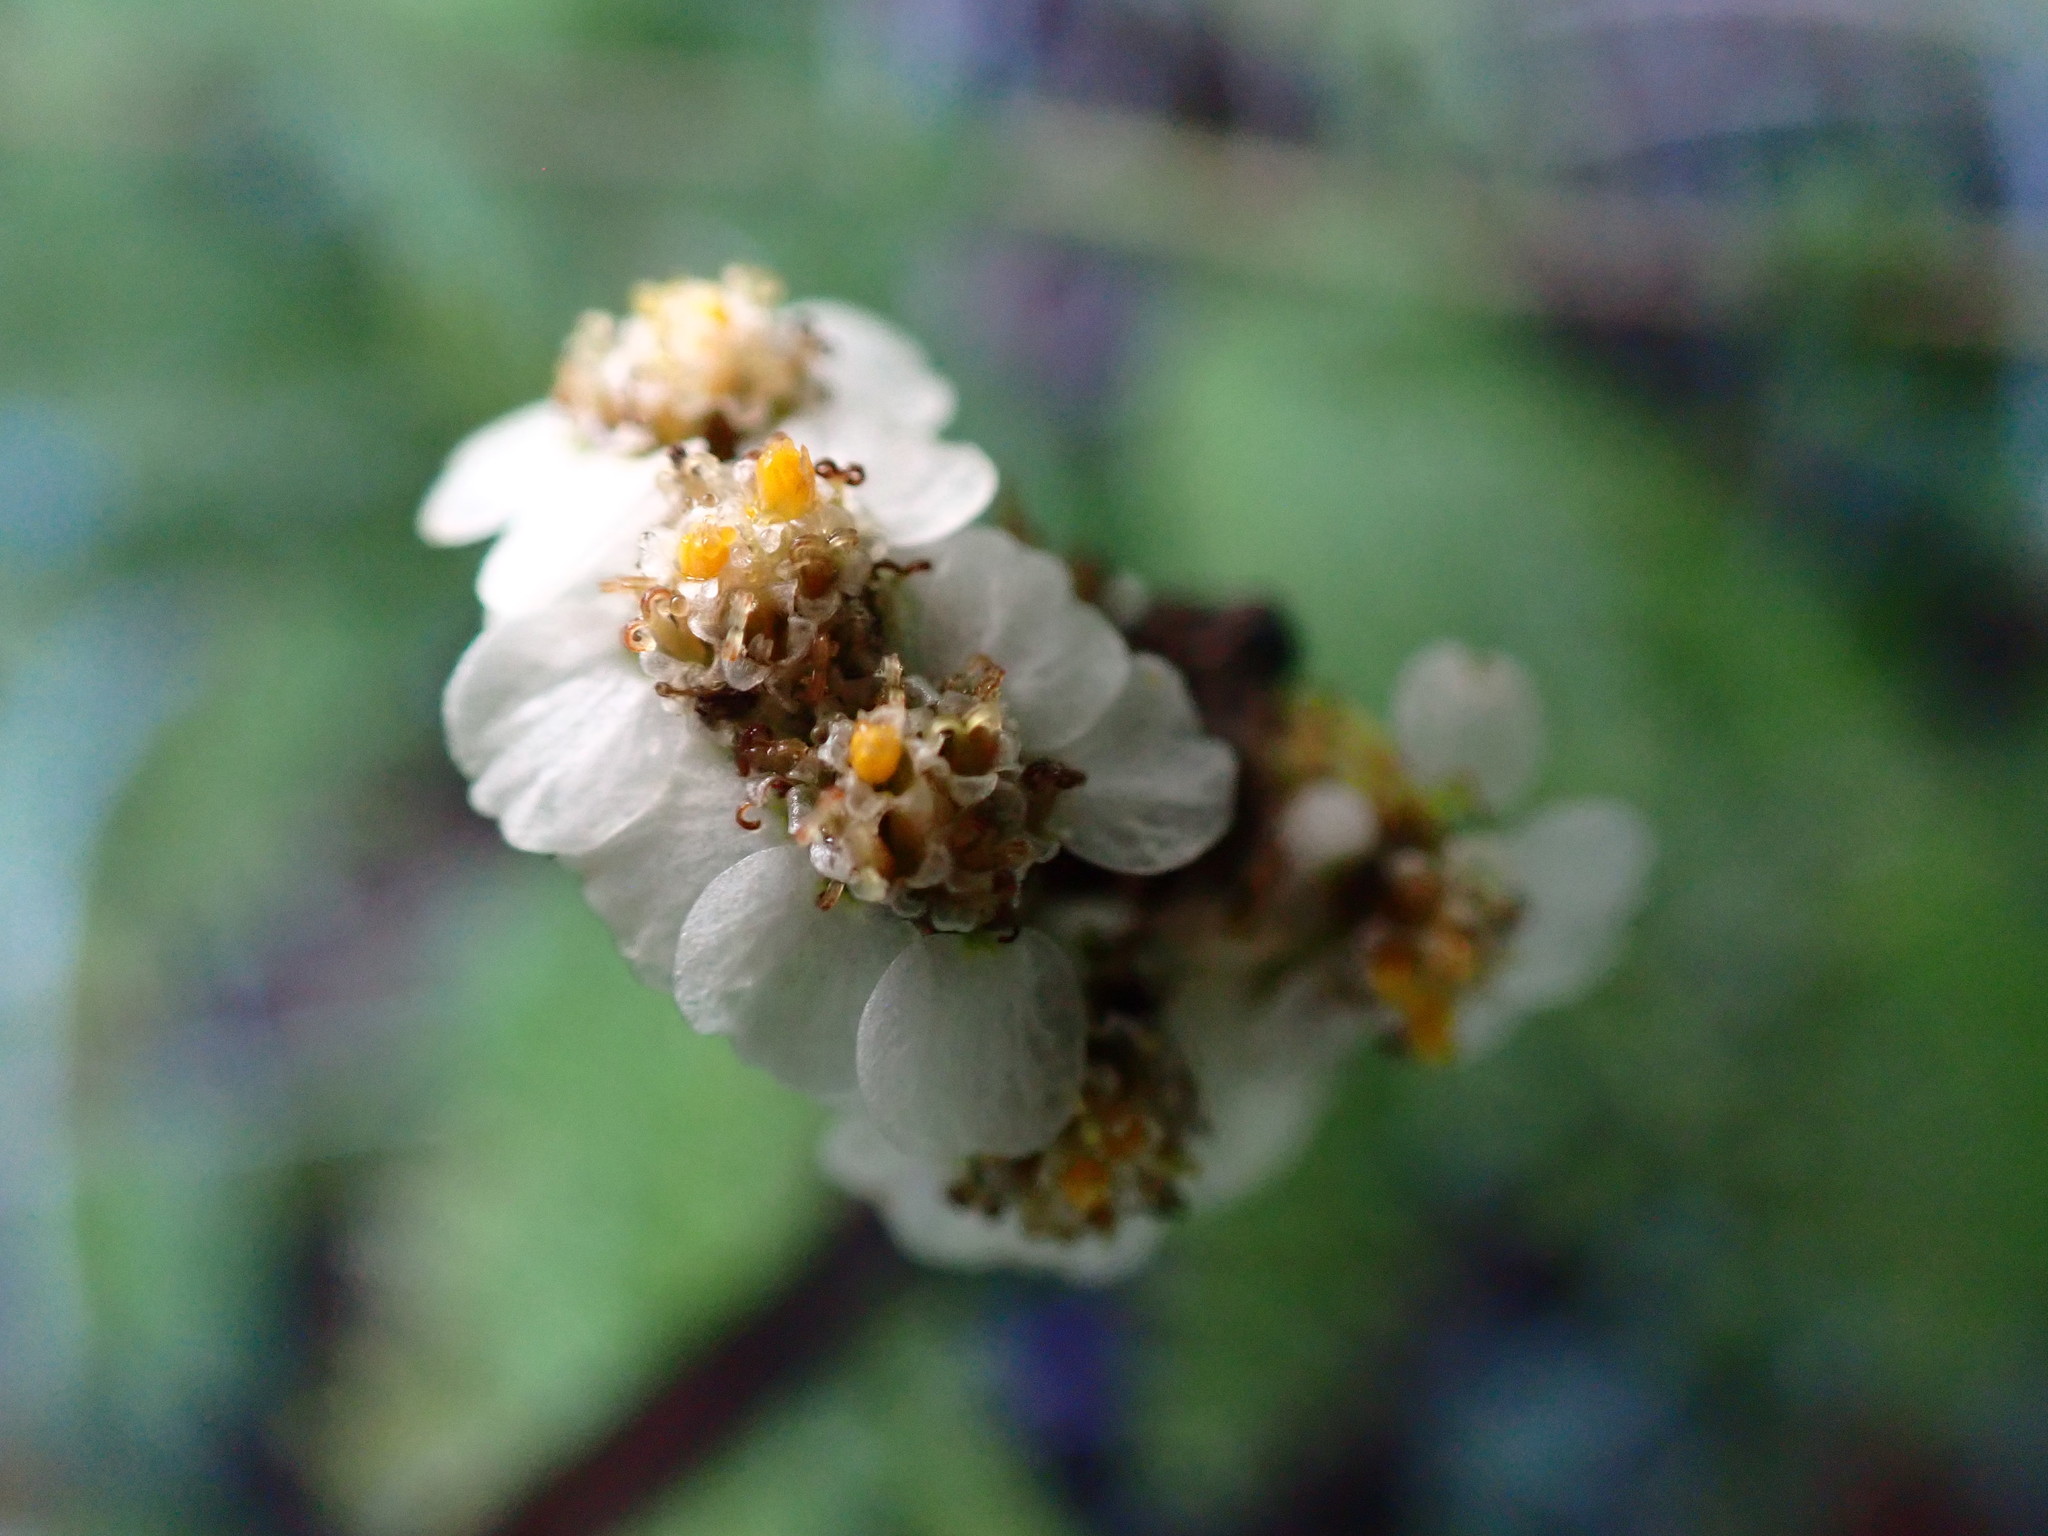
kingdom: Plantae
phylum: Tracheophyta
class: Magnoliopsida
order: Asterales
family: Asteraceae
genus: Achillea
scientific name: Achillea millefolium
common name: Yarrow
